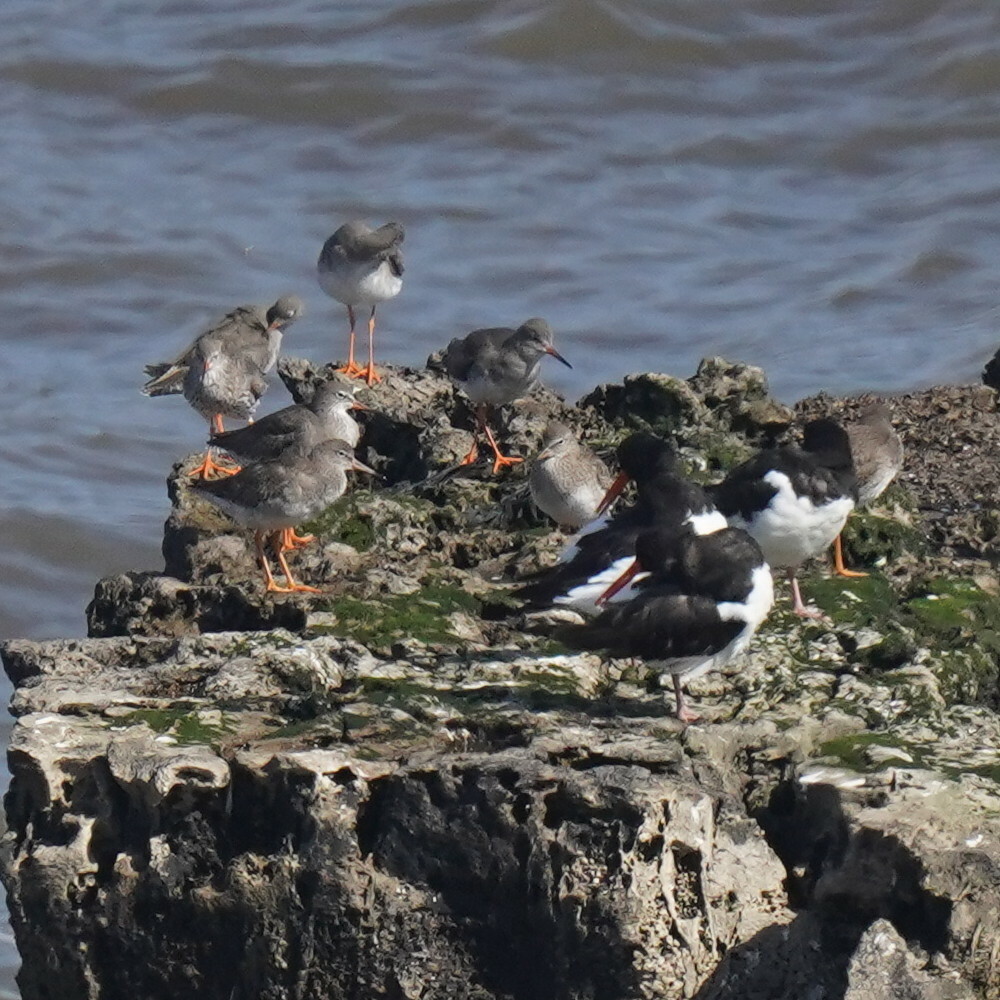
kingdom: Animalia
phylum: Chordata
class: Aves
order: Charadriiformes
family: Scolopacidae
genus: Tringa
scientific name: Tringa totanus
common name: Common redshank
